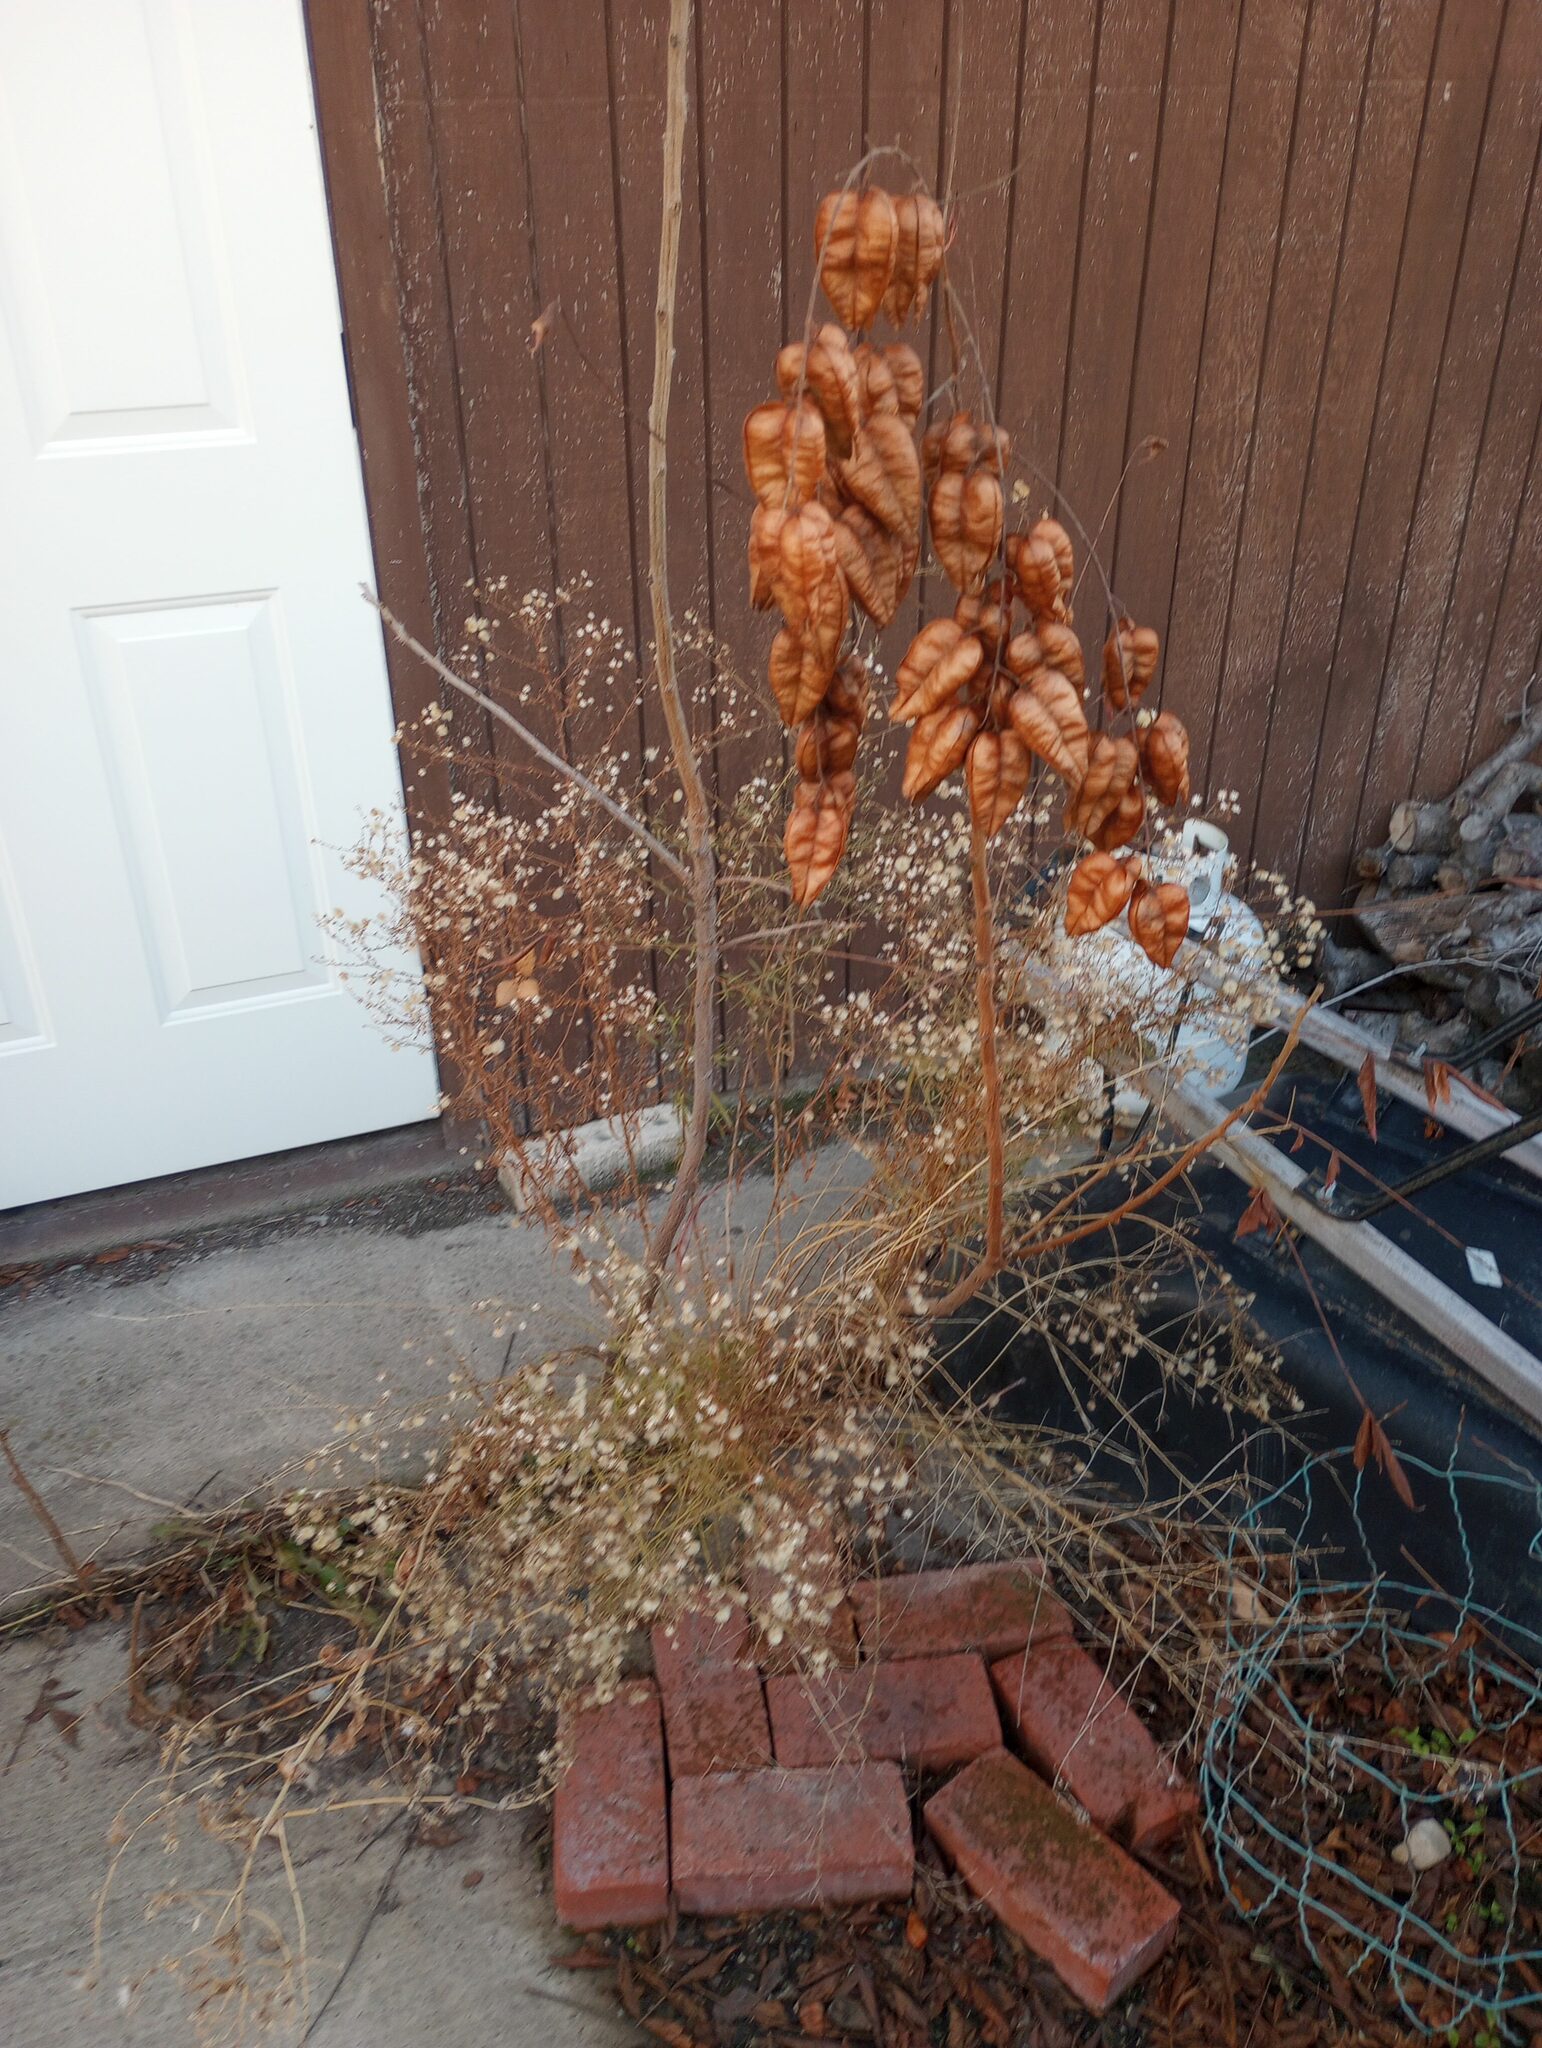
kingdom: Plantae
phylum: Tracheophyta
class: Magnoliopsida
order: Sapindales
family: Sapindaceae
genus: Koelreuteria
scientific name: Koelreuteria paniculata
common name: Pride-of-india
